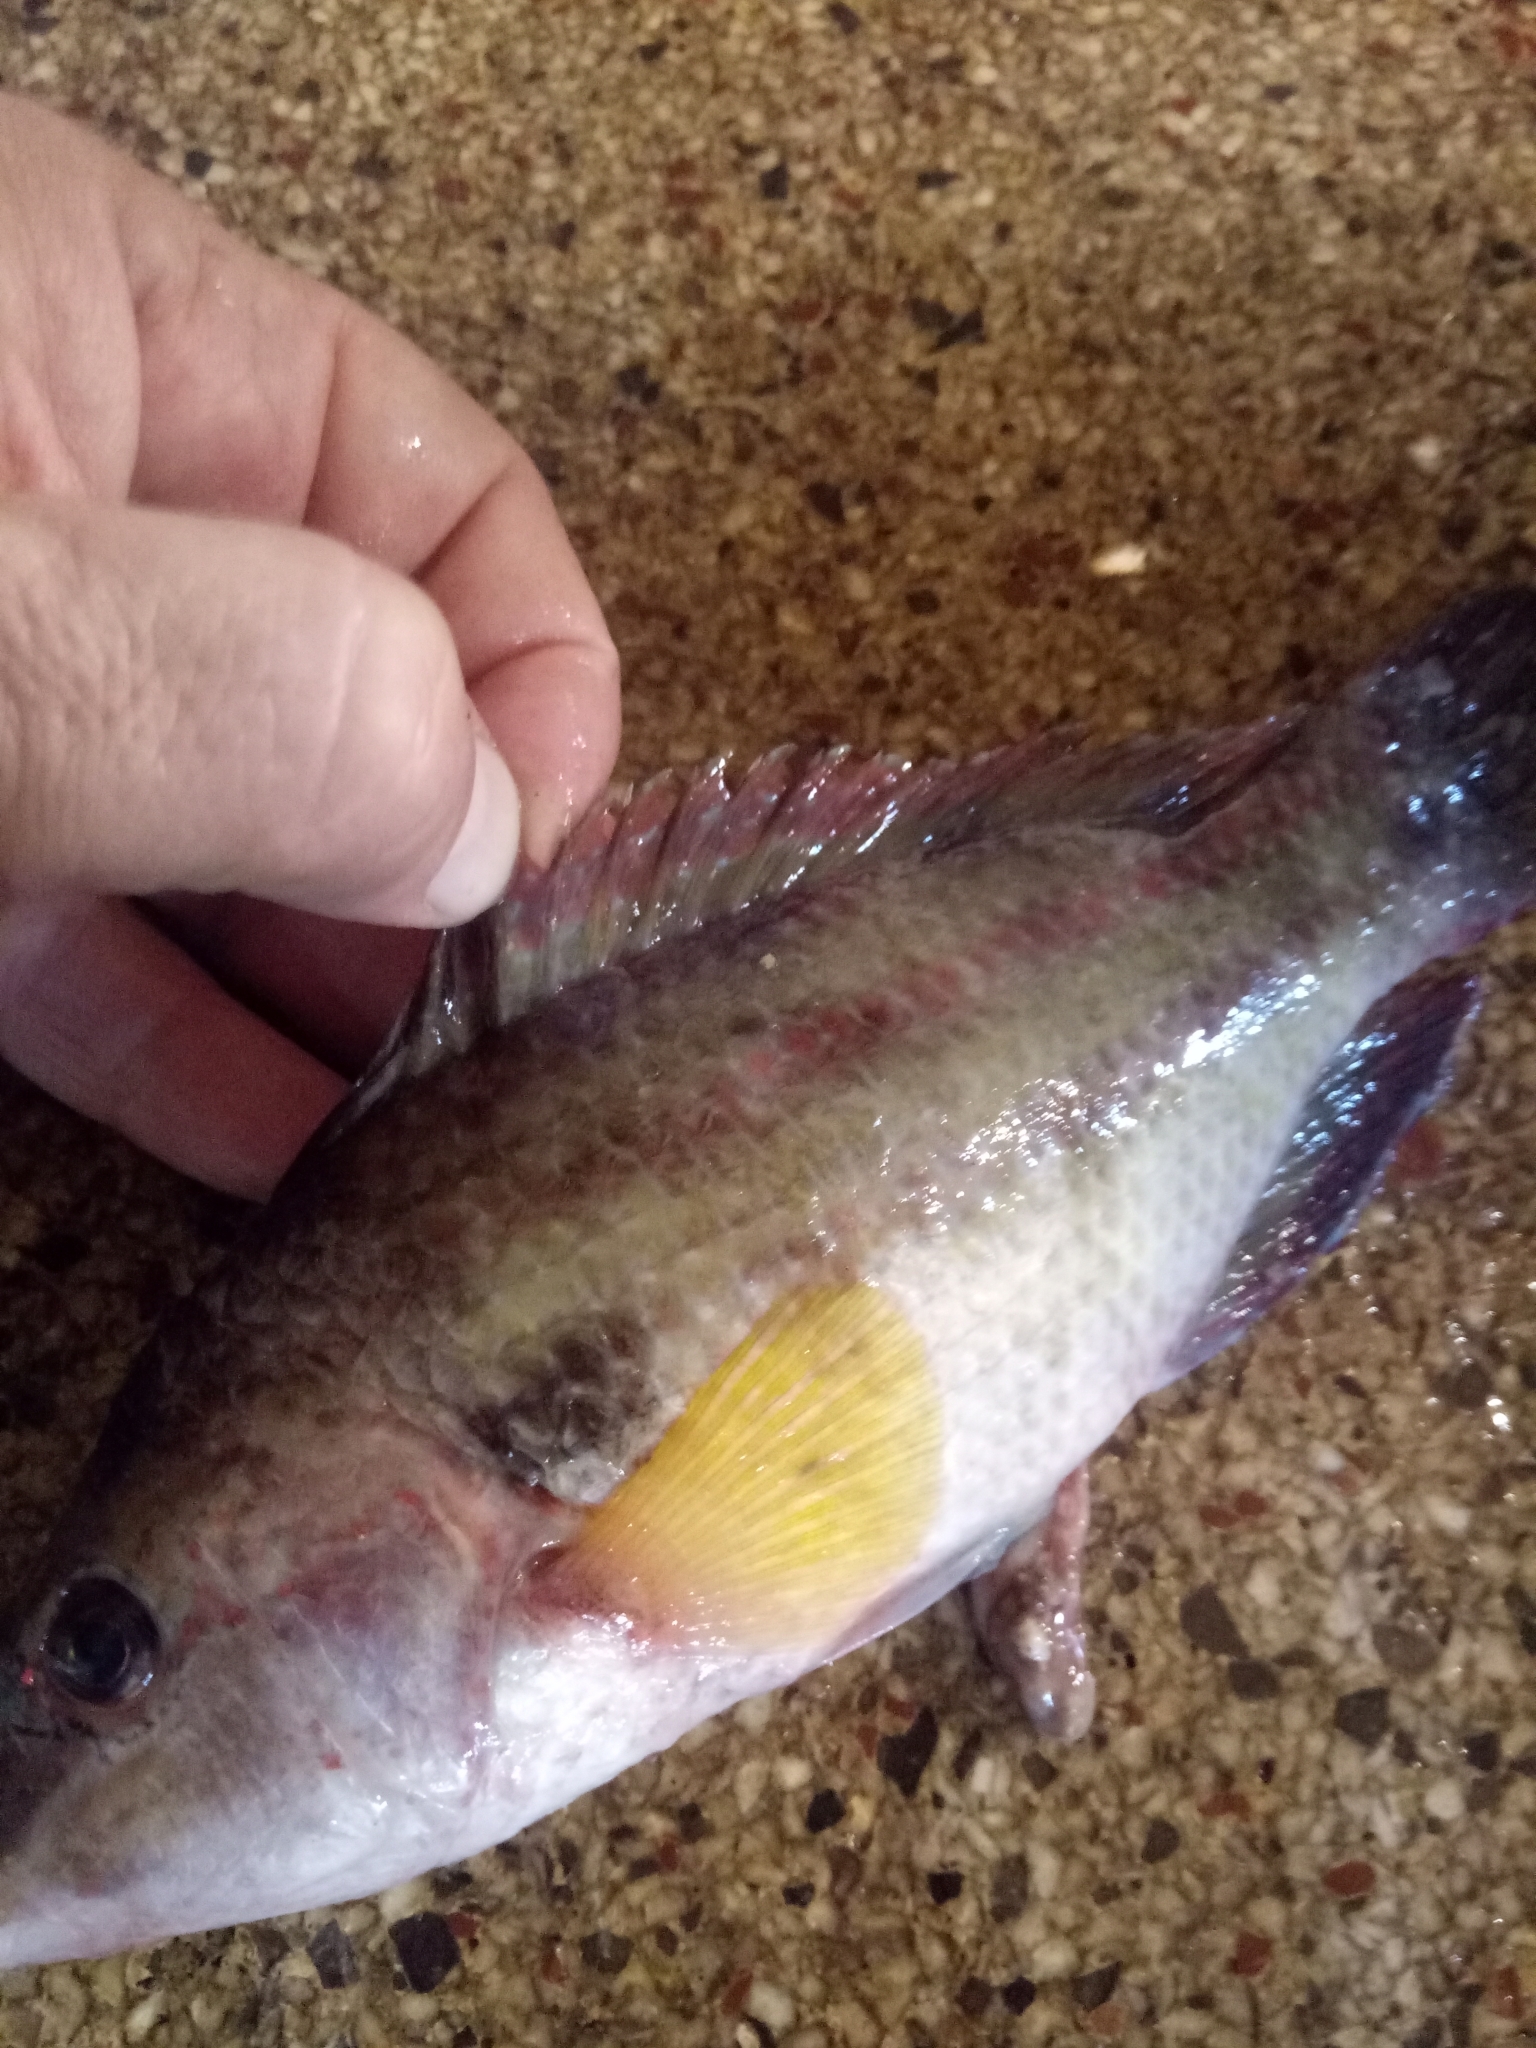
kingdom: Animalia
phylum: Chordata
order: Perciformes
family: Labridae
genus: Symphodus
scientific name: Symphodus tinca
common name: Peacock wrasse
